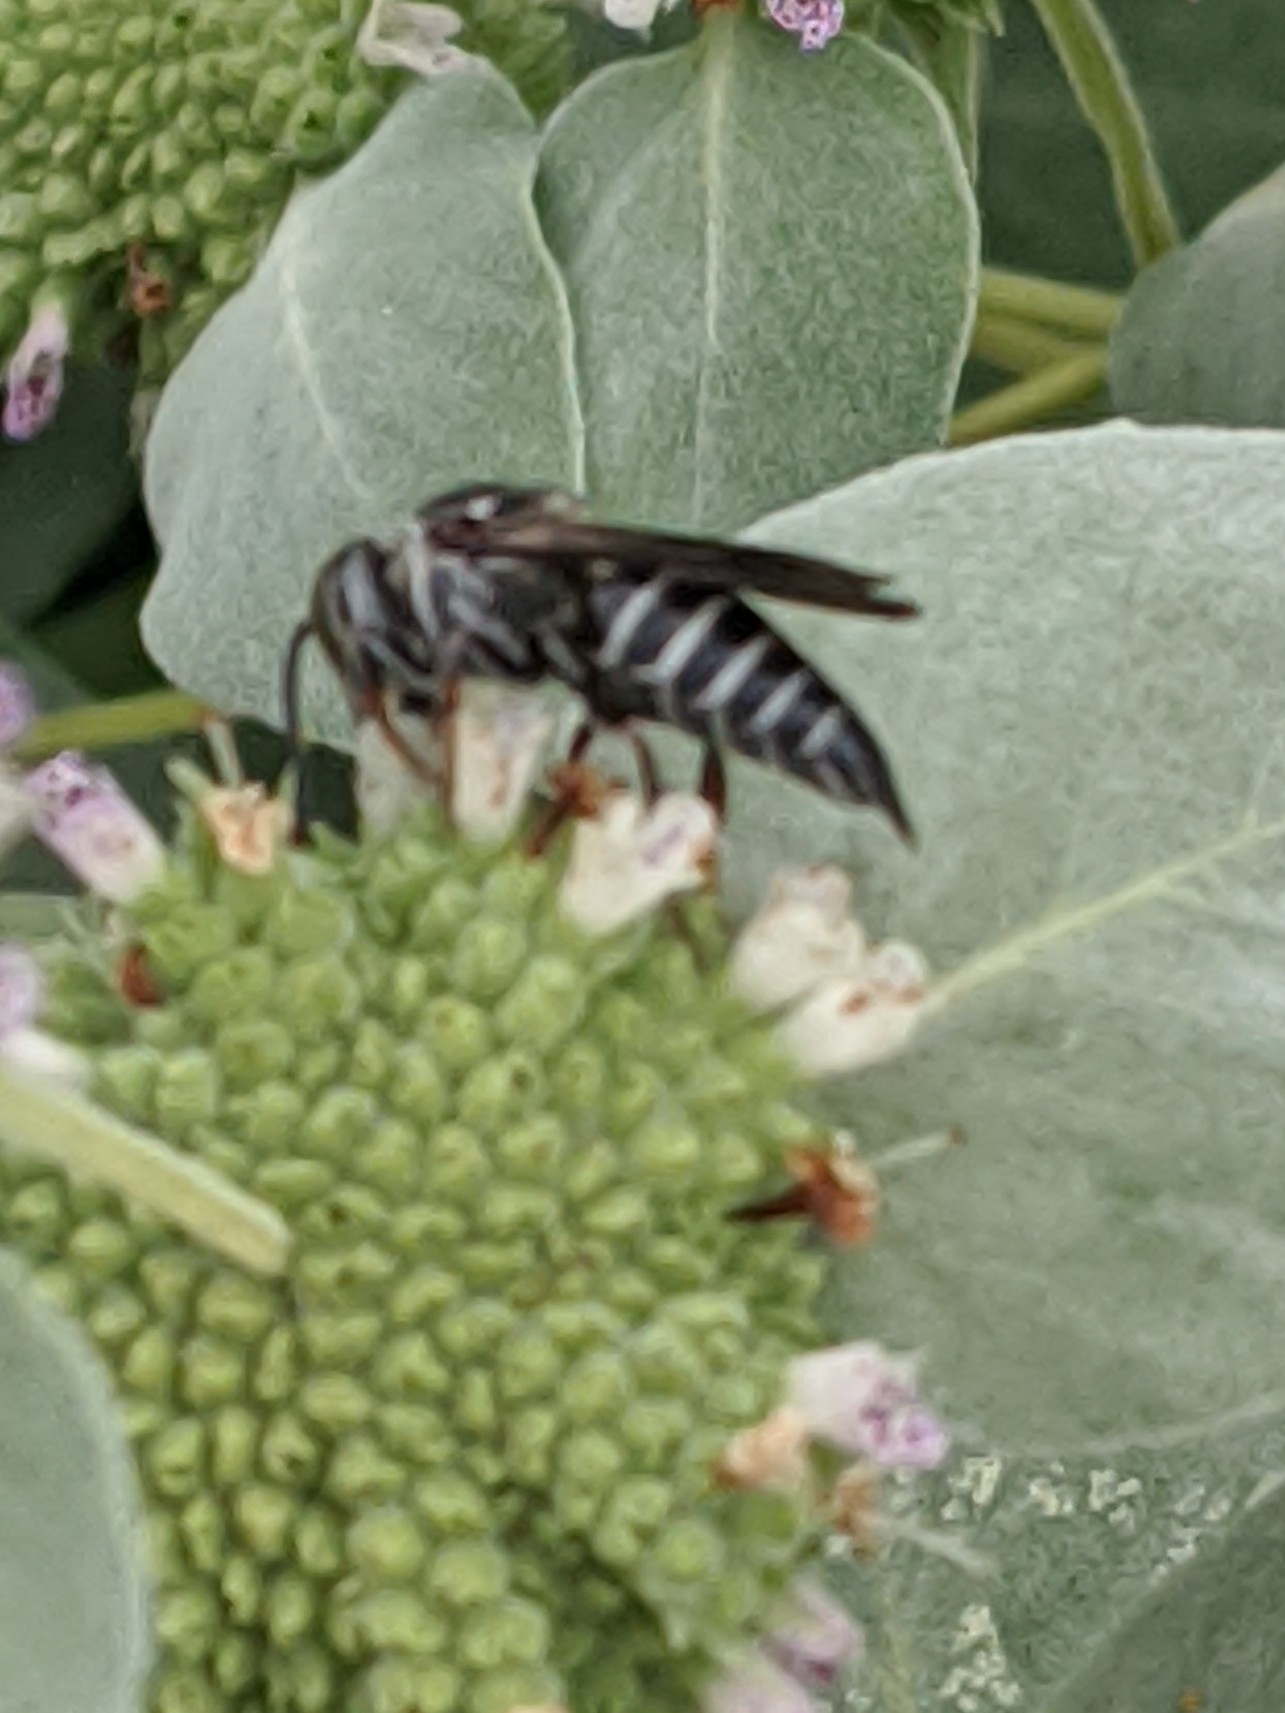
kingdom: Animalia
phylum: Arthropoda
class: Insecta
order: Hymenoptera
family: Megachilidae
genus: Coelioxys
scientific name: Coelioxys sayi
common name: Say's cuckoo leaf-cutter bee
